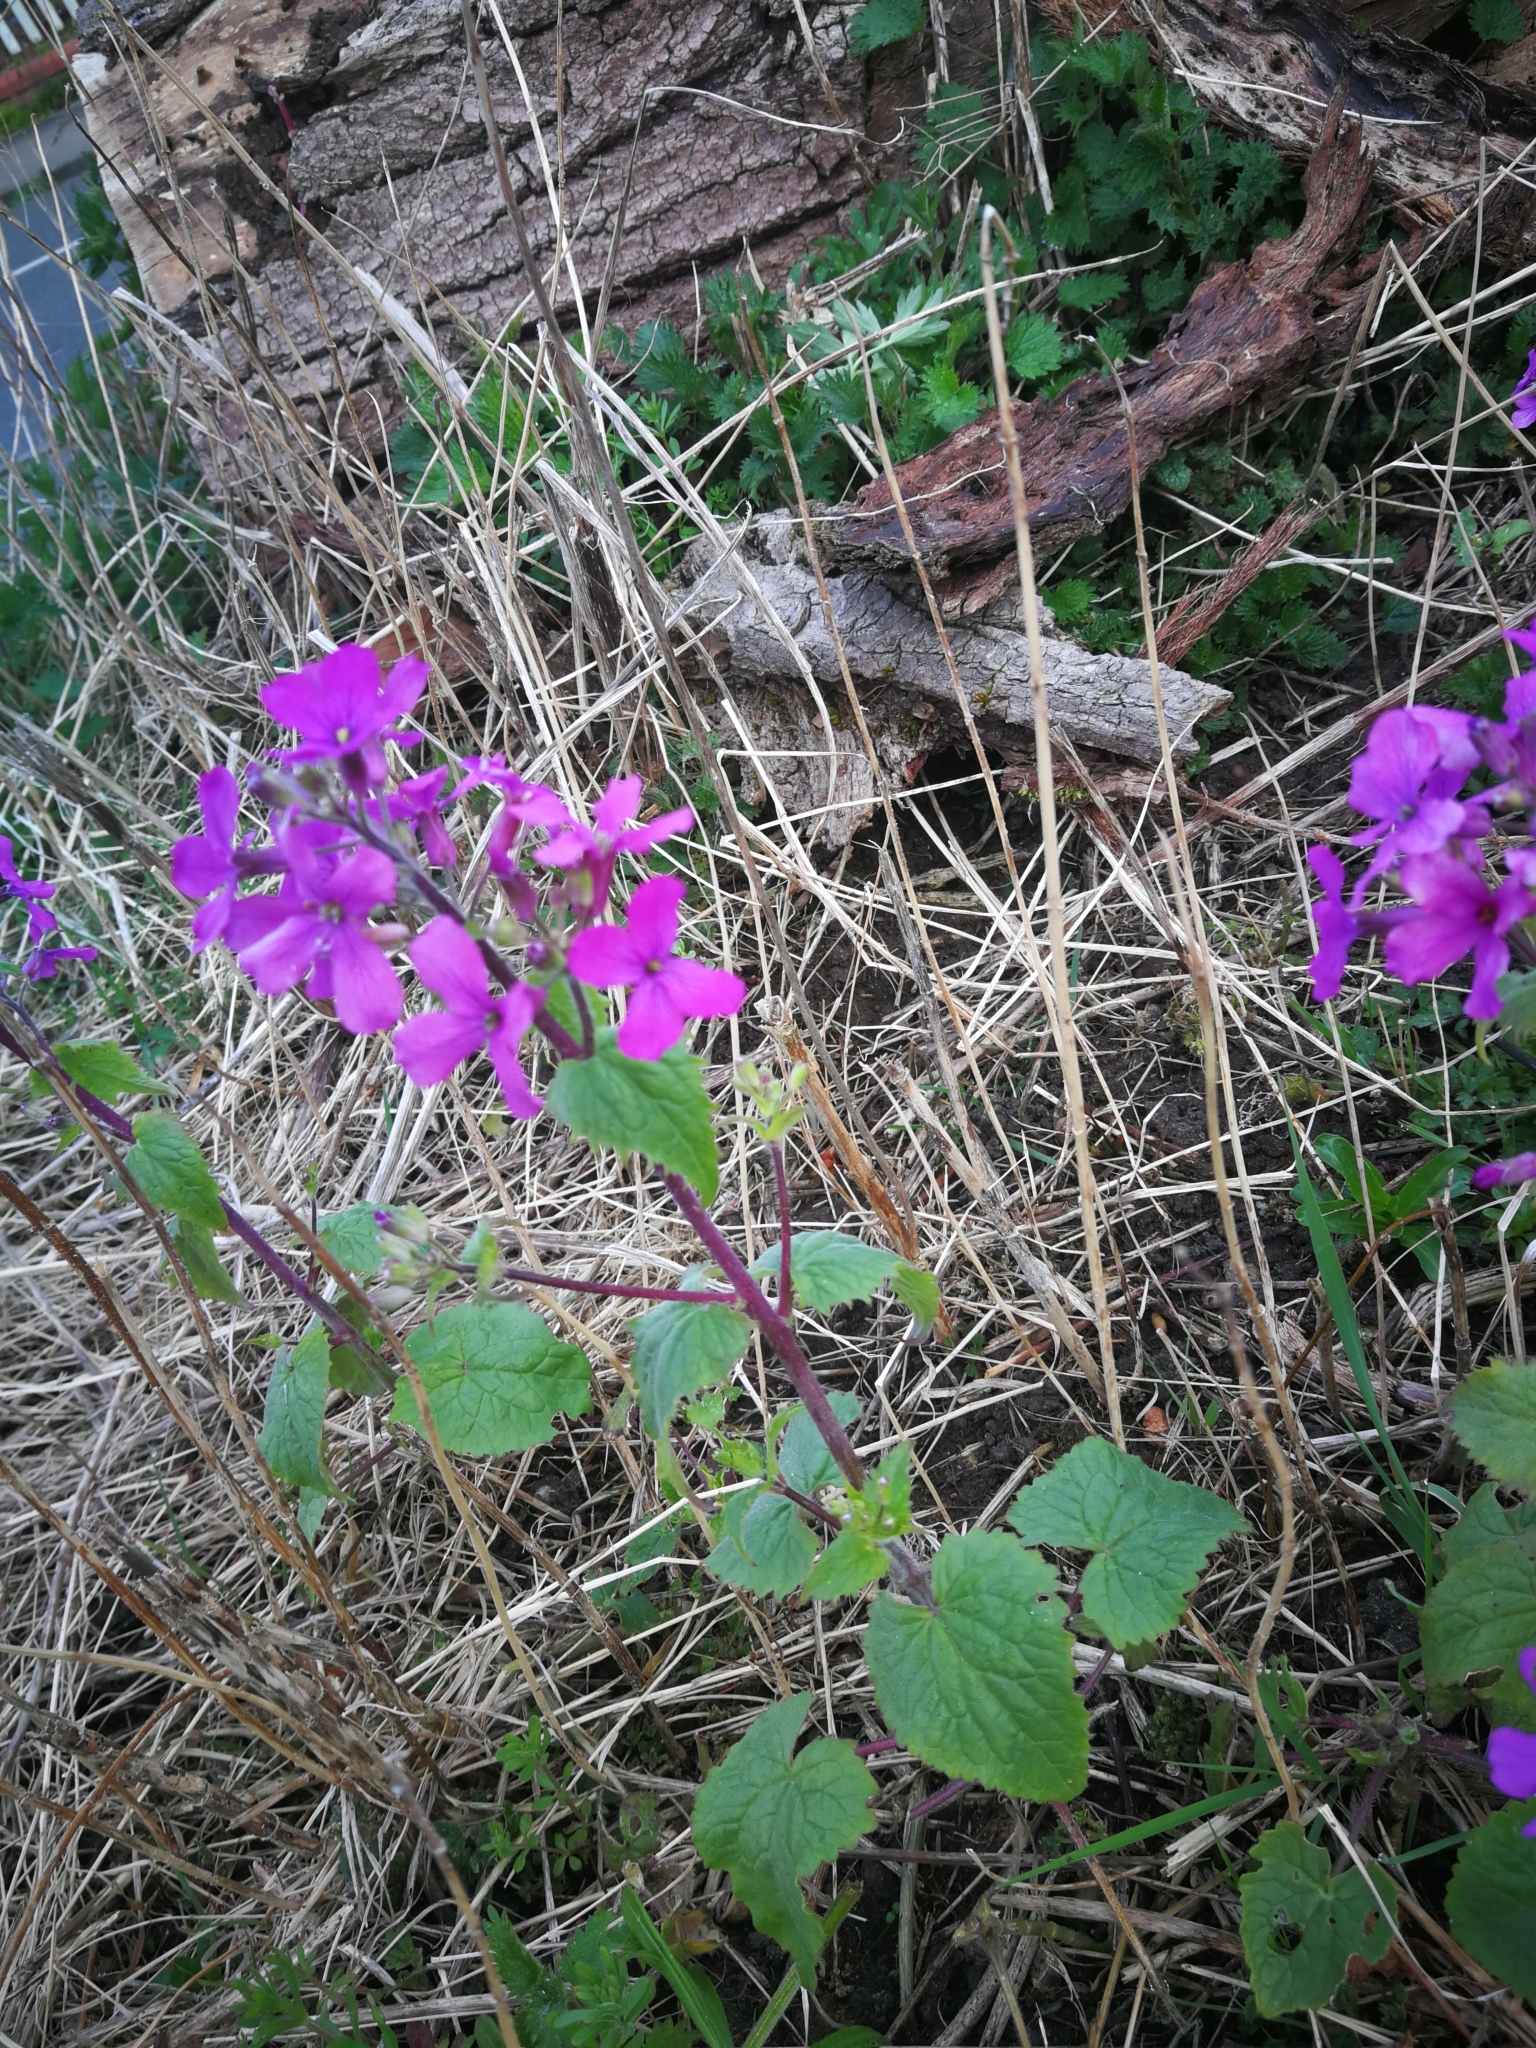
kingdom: Plantae
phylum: Tracheophyta
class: Magnoliopsida
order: Brassicales
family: Brassicaceae
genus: Lunaria
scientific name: Lunaria annua
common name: Honesty
